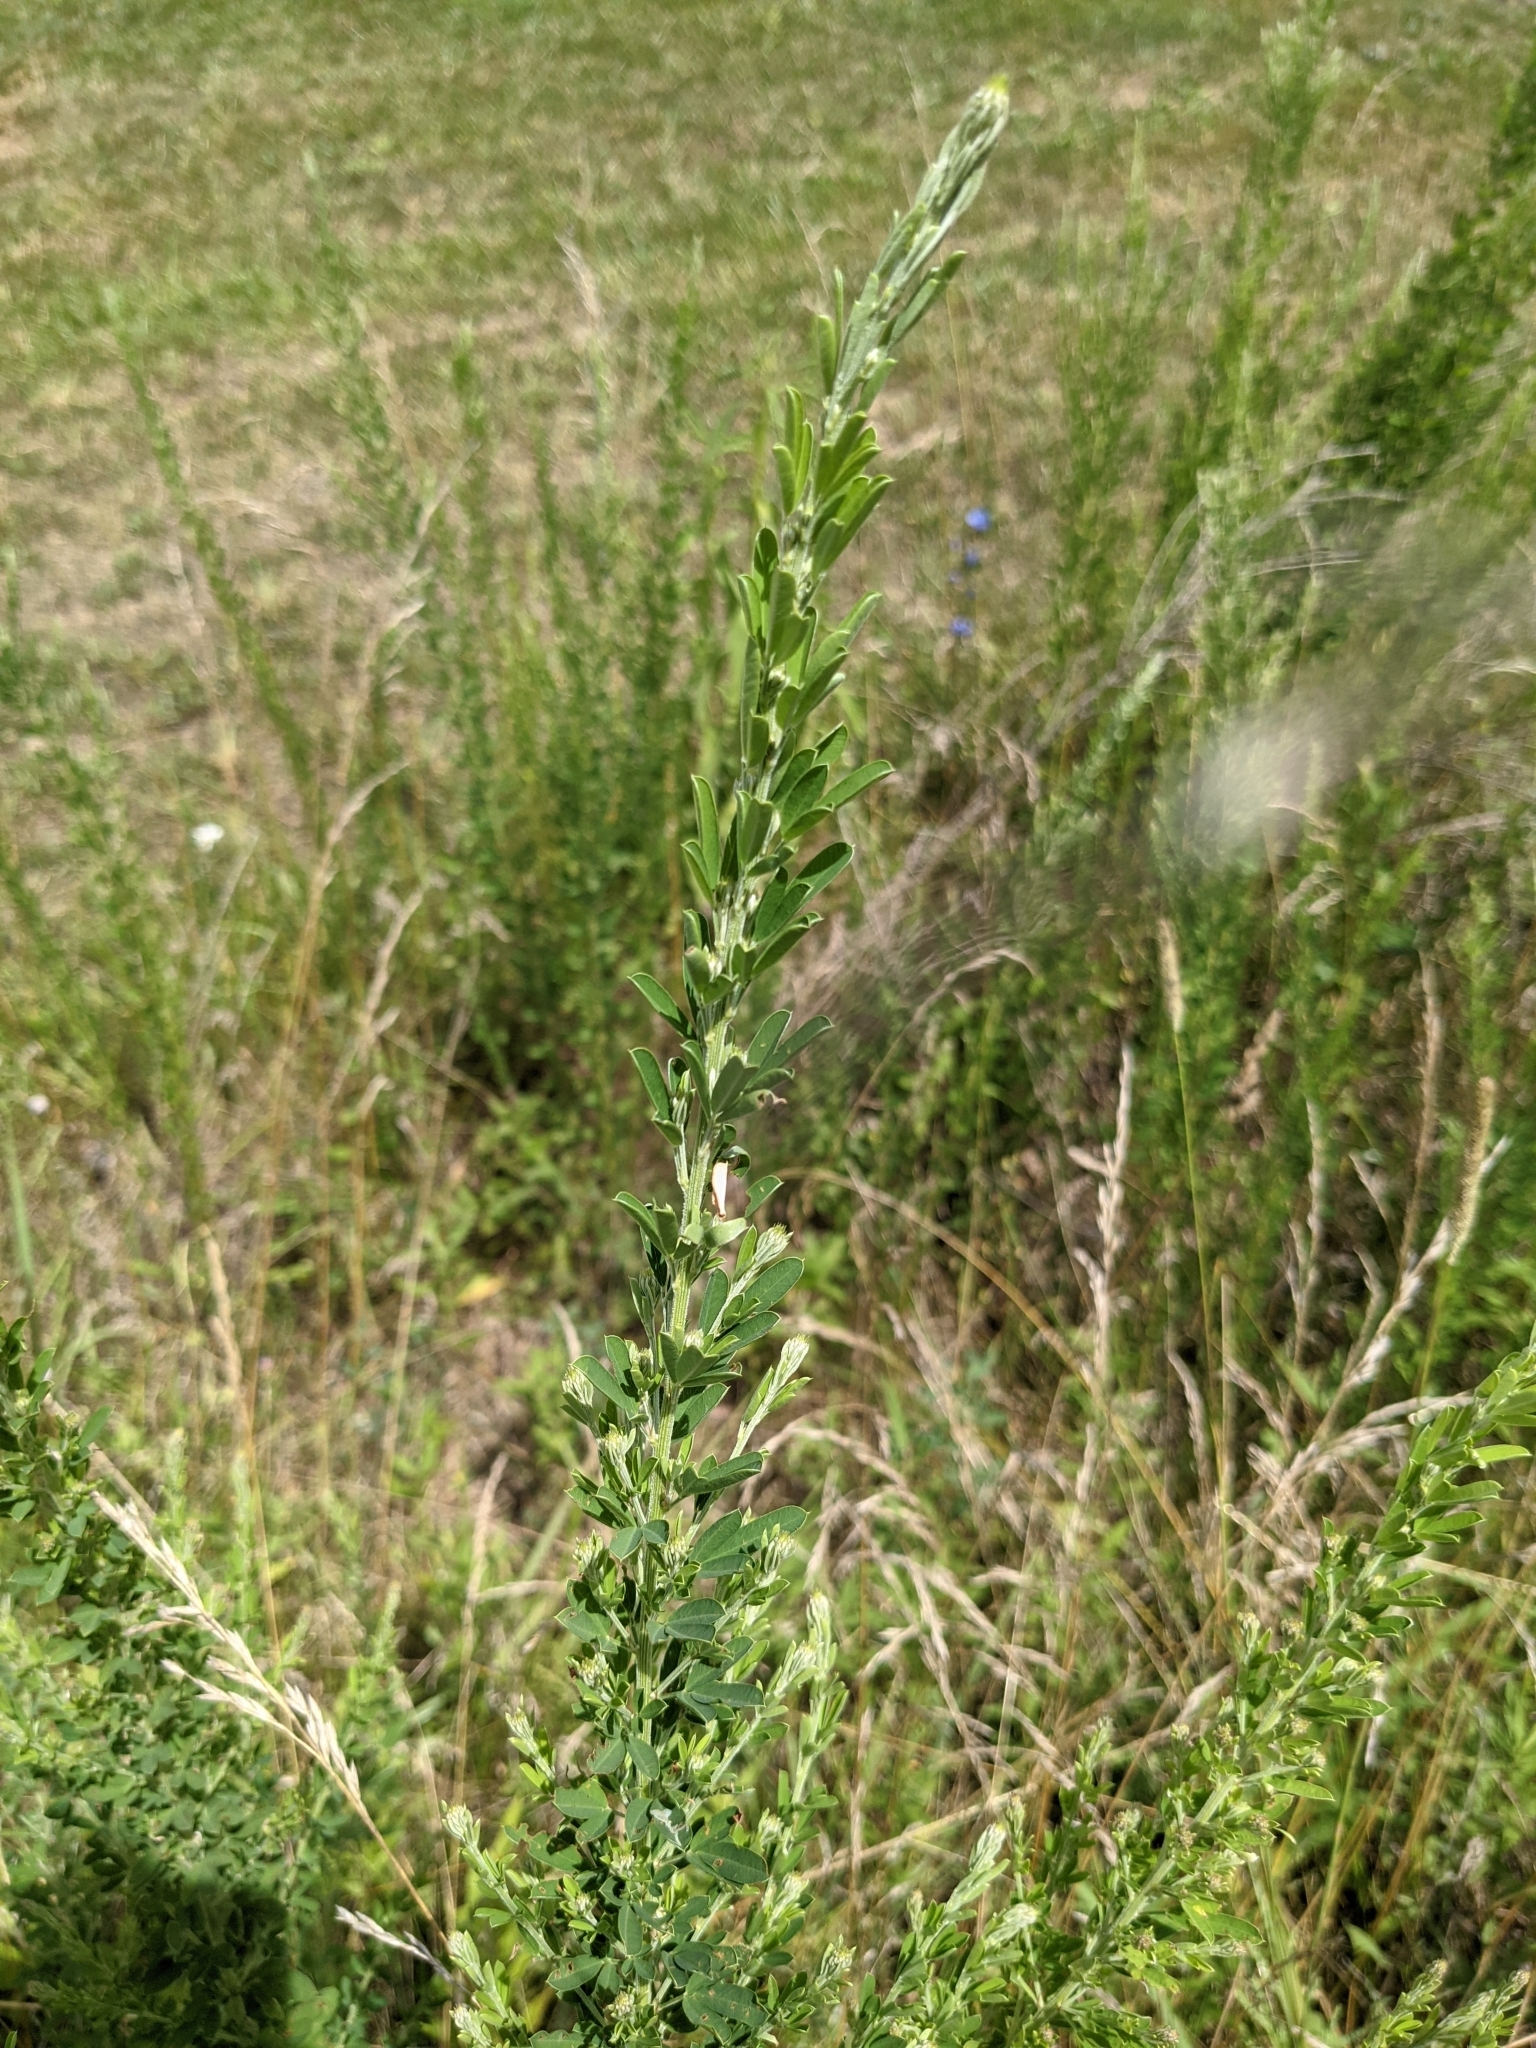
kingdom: Plantae
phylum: Tracheophyta
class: Magnoliopsida
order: Fabales
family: Fabaceae
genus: Lespedeza
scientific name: Lespedeza cuneata
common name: Chinese bush-clover
